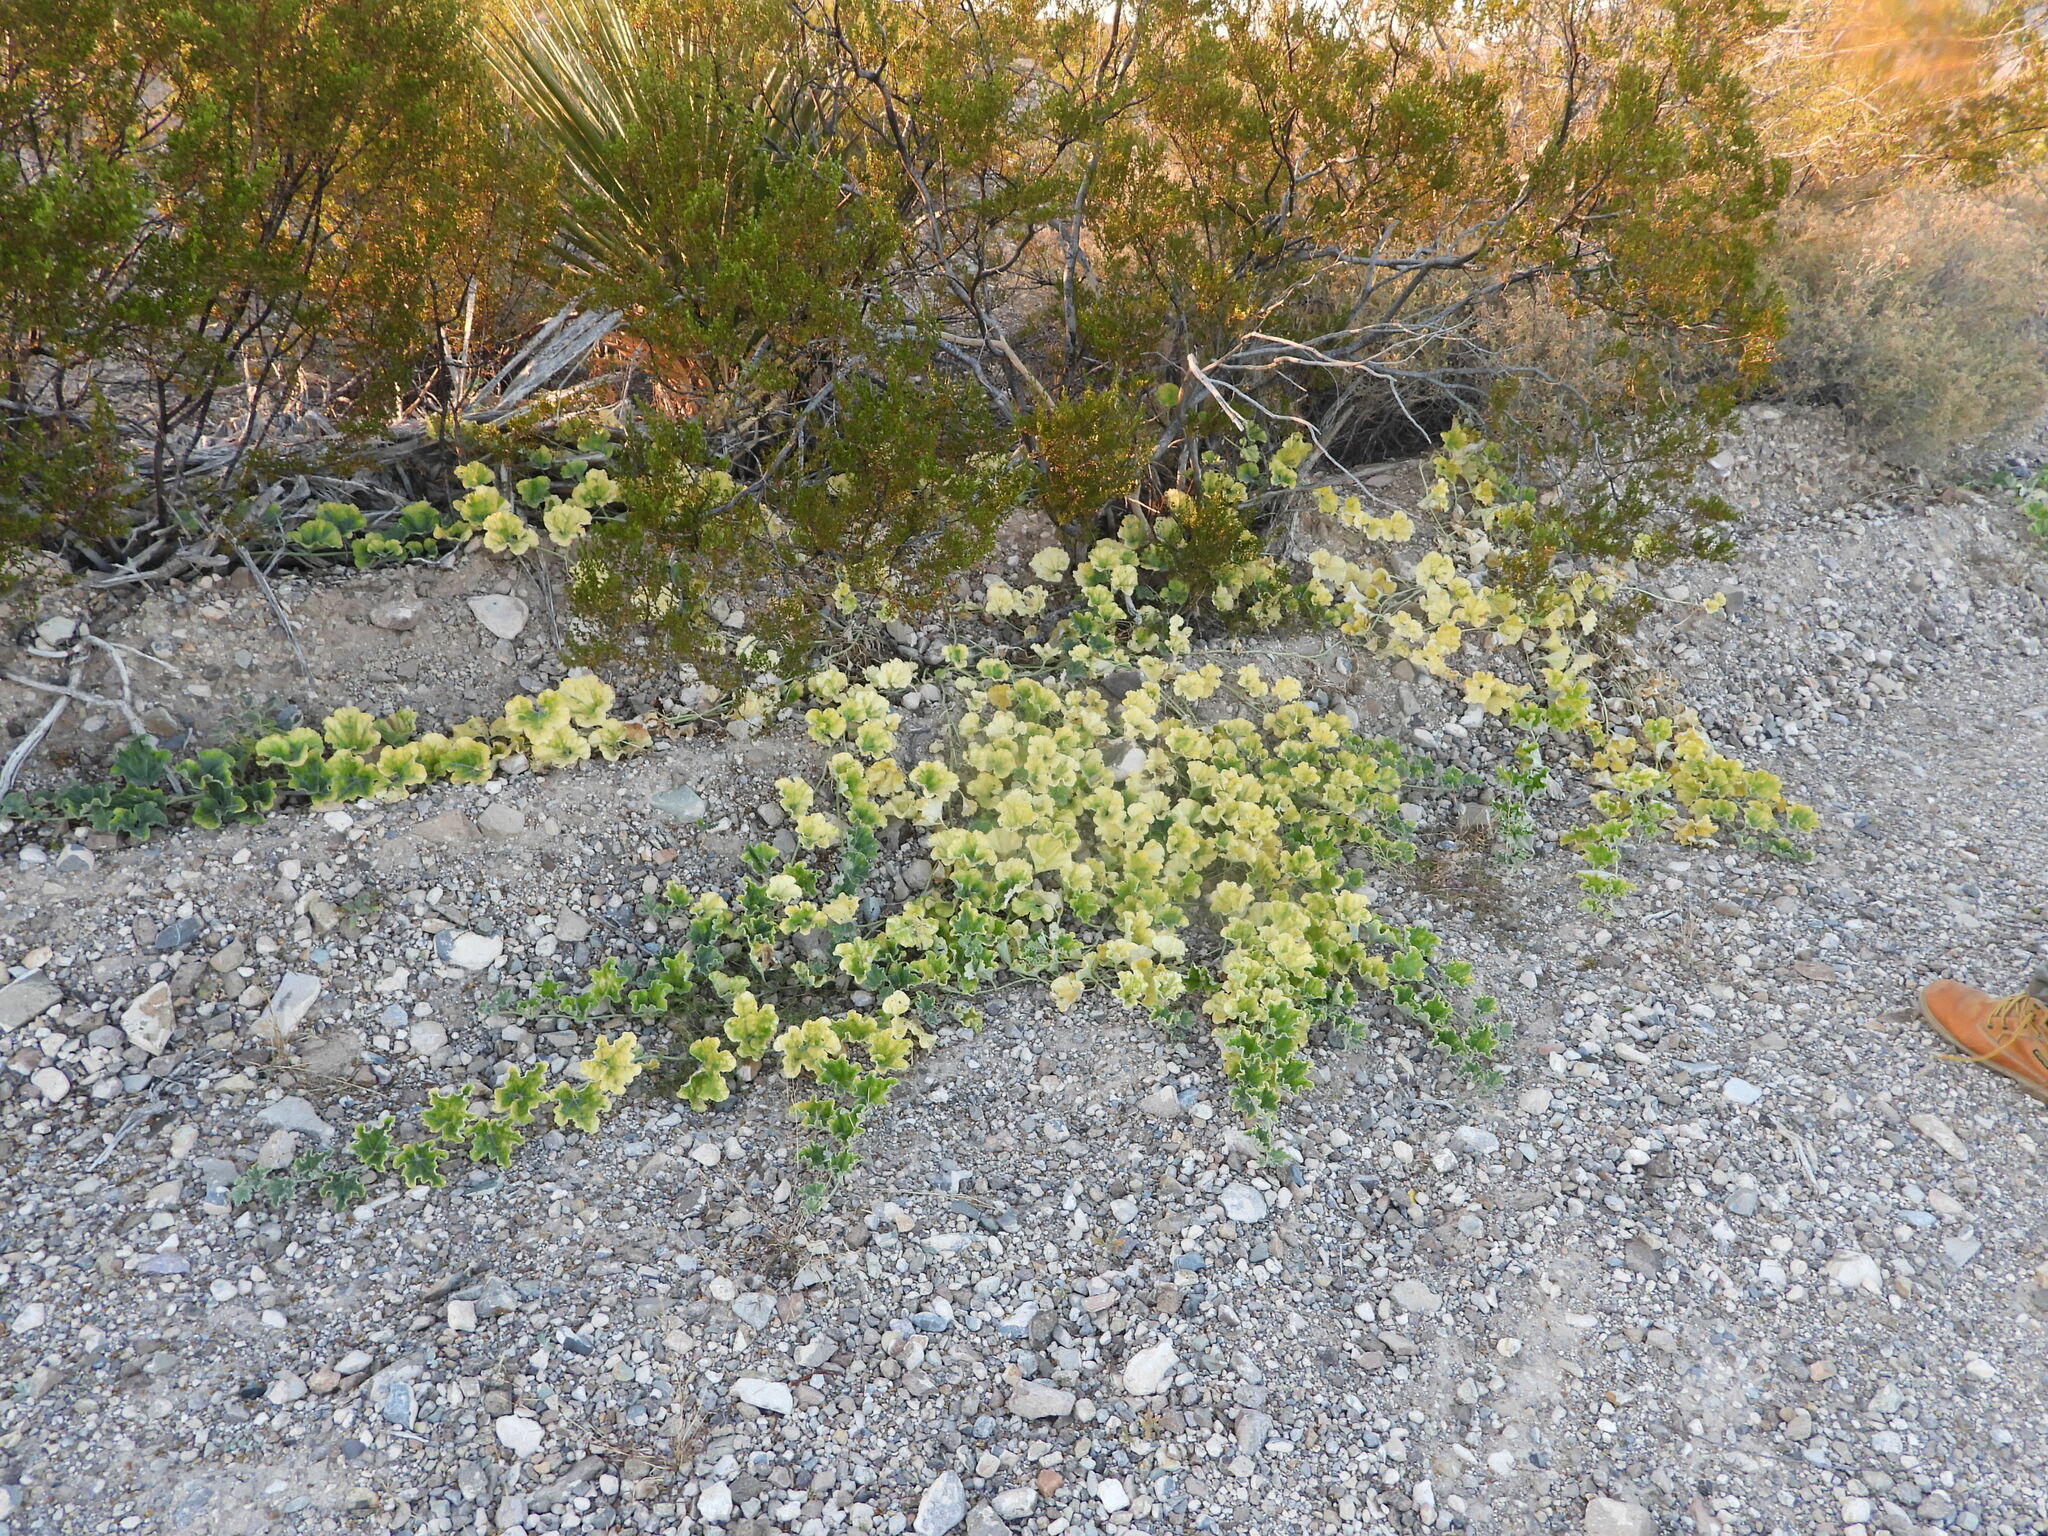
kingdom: Plantae
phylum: Tracheophyta
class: Magnoliopsida
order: Cucurbitales
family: Cucurbitaceae
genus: Apodanthera
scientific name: Apodanthera undulata
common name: Melon-loco
